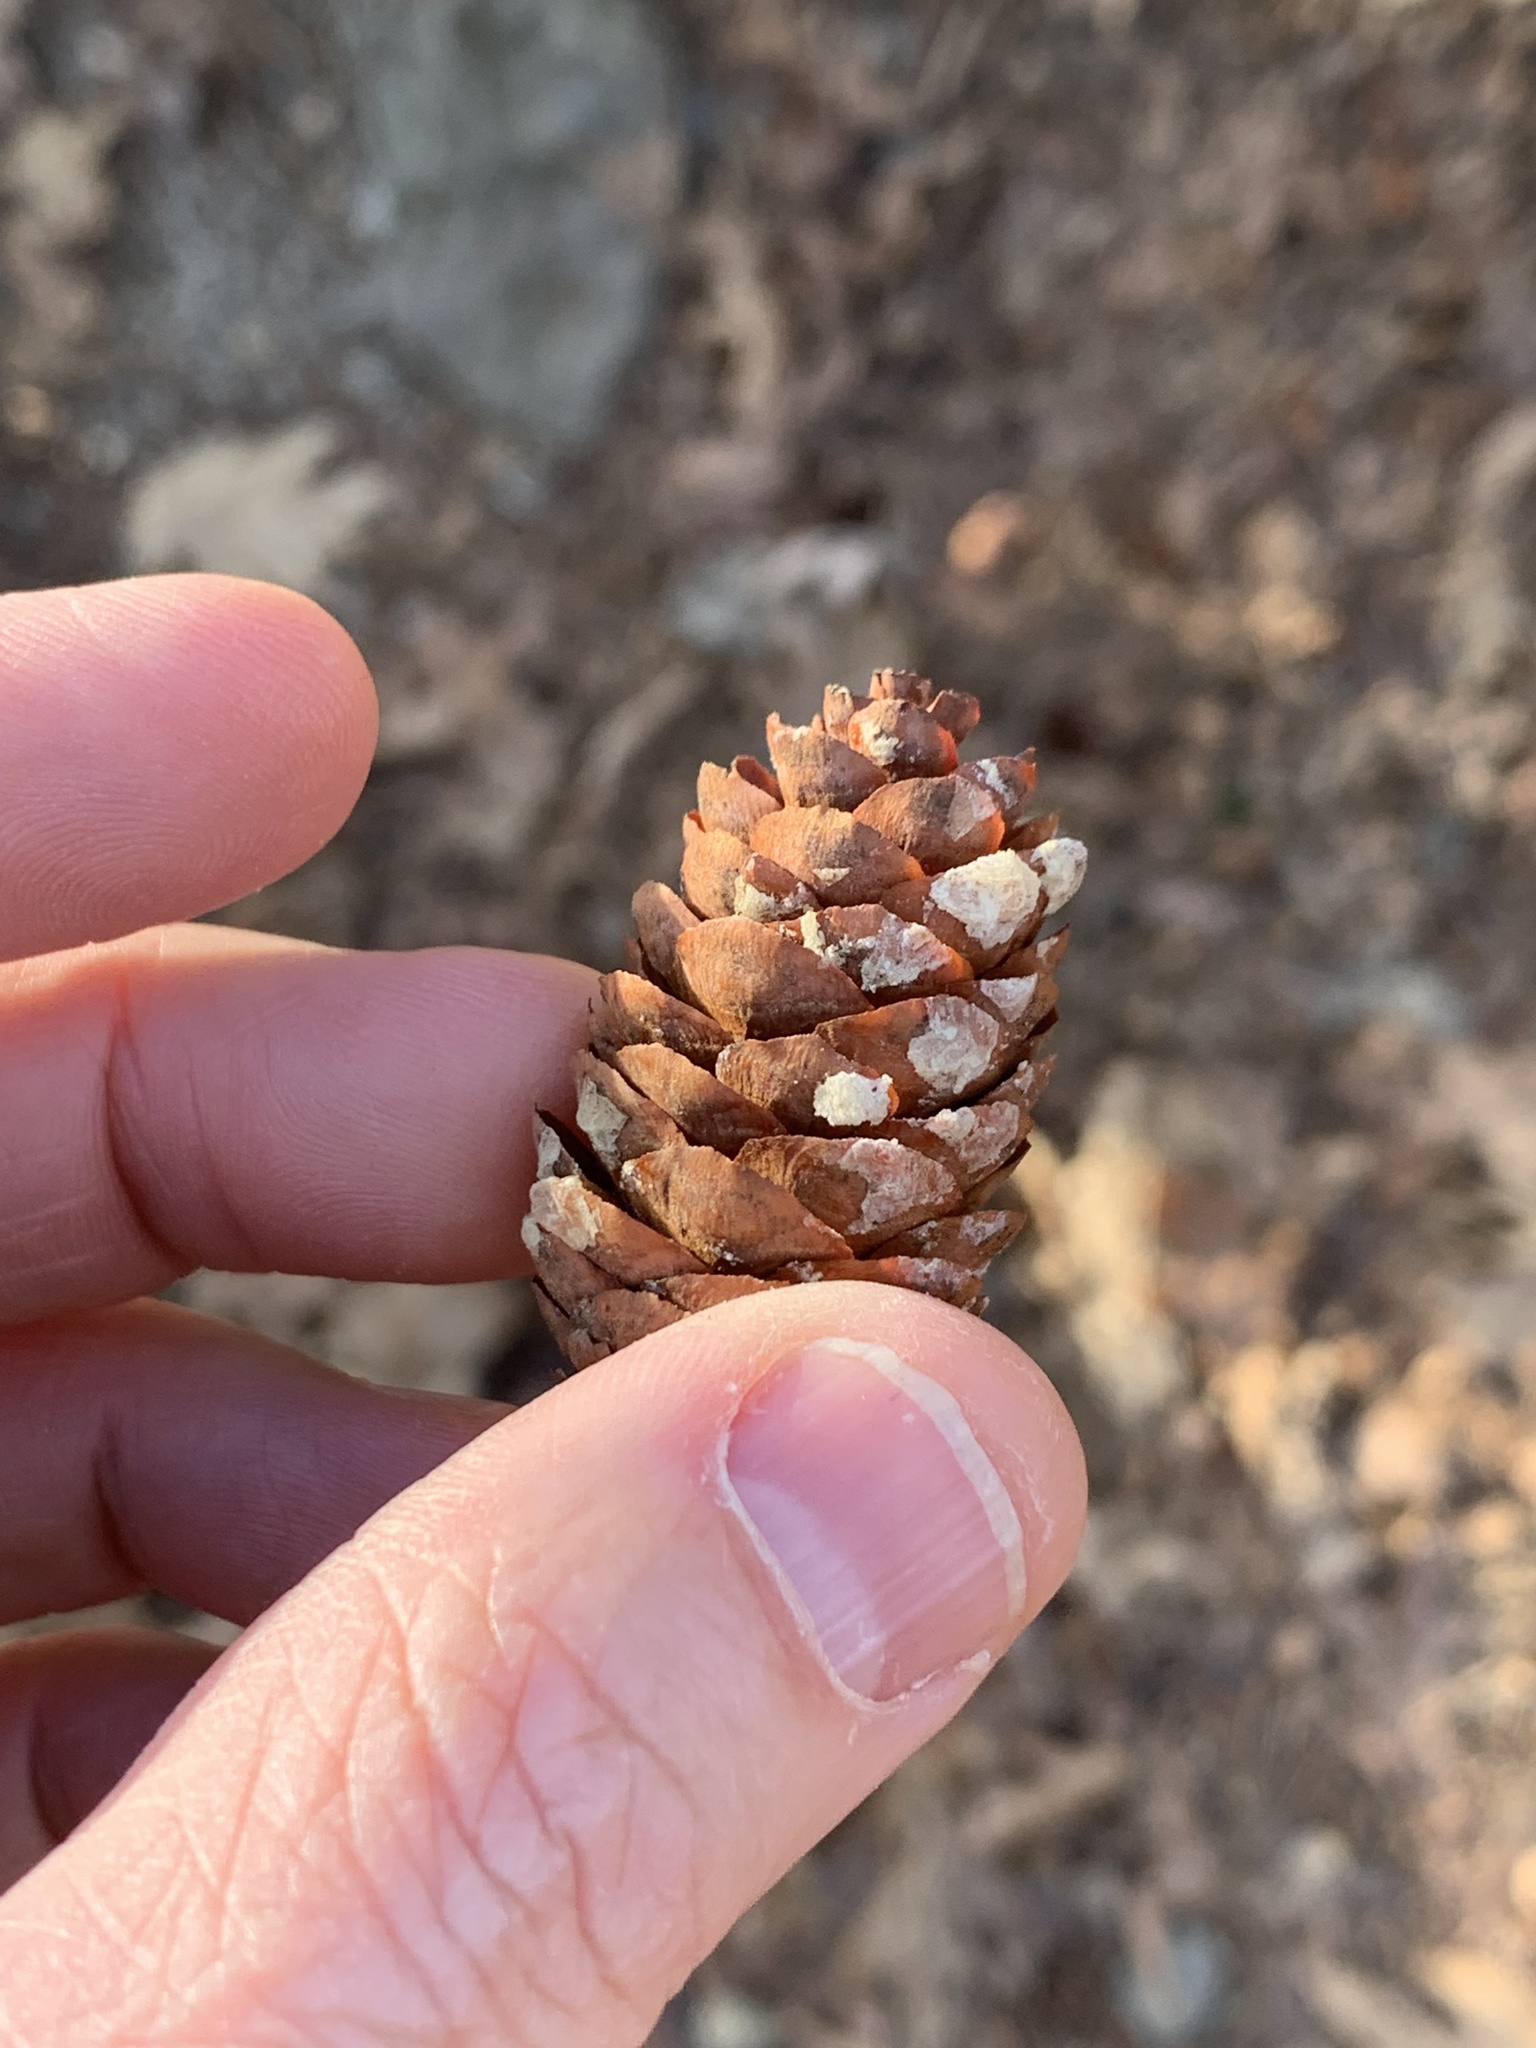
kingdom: Plantae
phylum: Tracheophyta
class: Pinopsida
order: Pinales
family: Pinaceae
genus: Picea
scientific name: Picea rubens
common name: Red spruce
